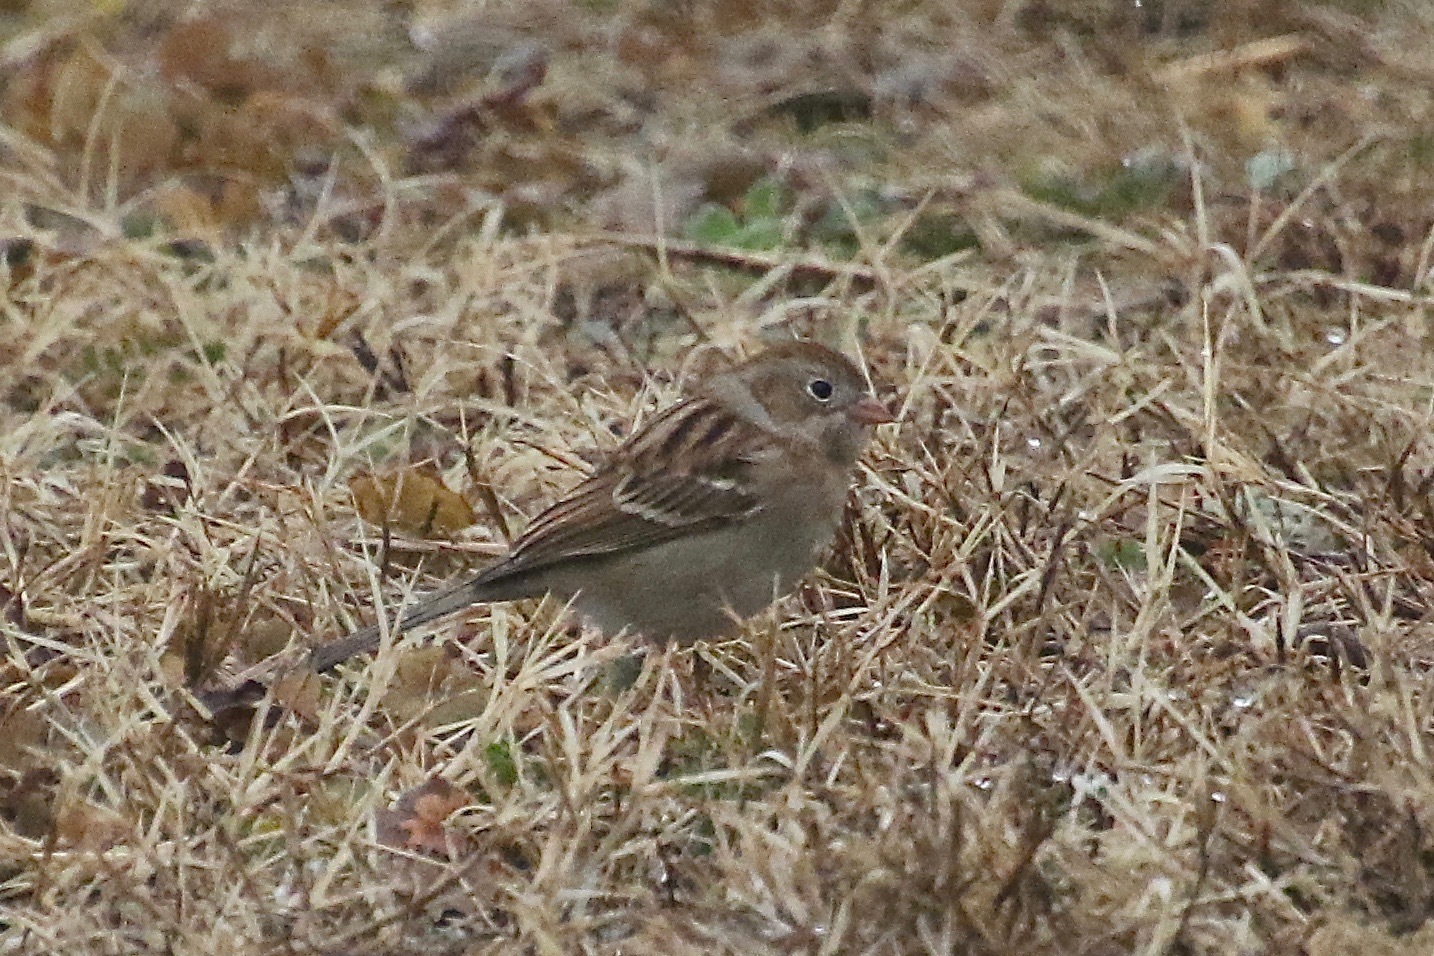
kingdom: Animalia
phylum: Chordata
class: Aves
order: Passeriformes
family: Passerellidae
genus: Spizella
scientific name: Spizella pusilla
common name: Field sparrow
